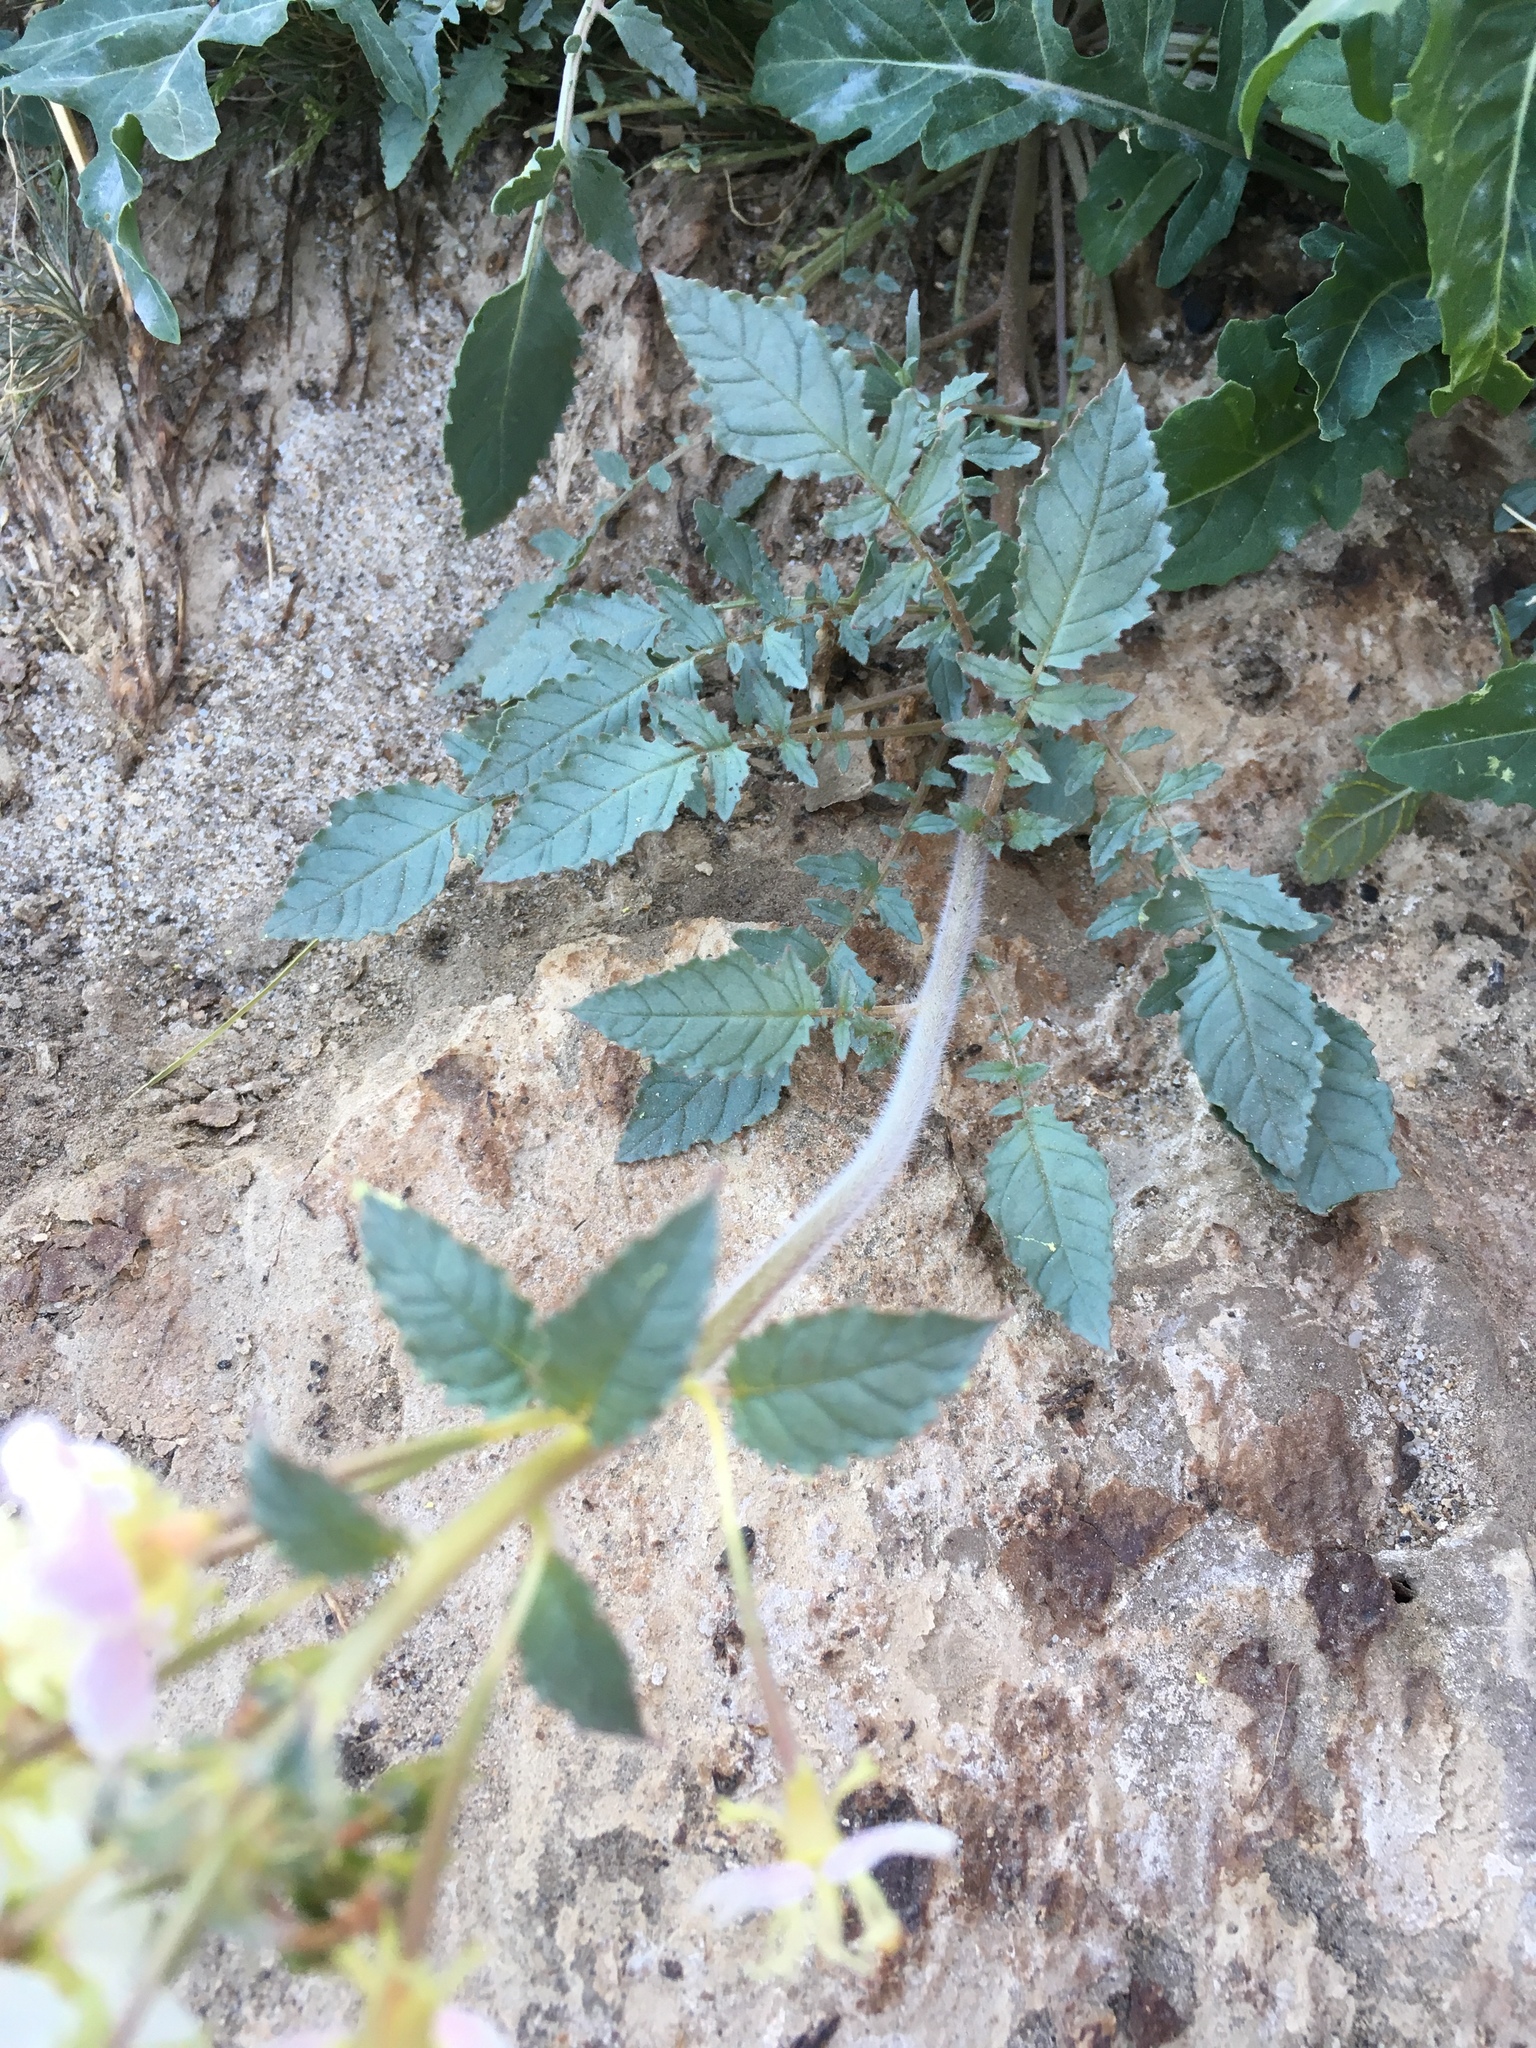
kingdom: Plantae
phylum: Tracheophyta
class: Magnoliopsida
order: Myrtales
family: Onagraceae
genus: Chylismia
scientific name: Chylismia claviformis
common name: Browneyes
